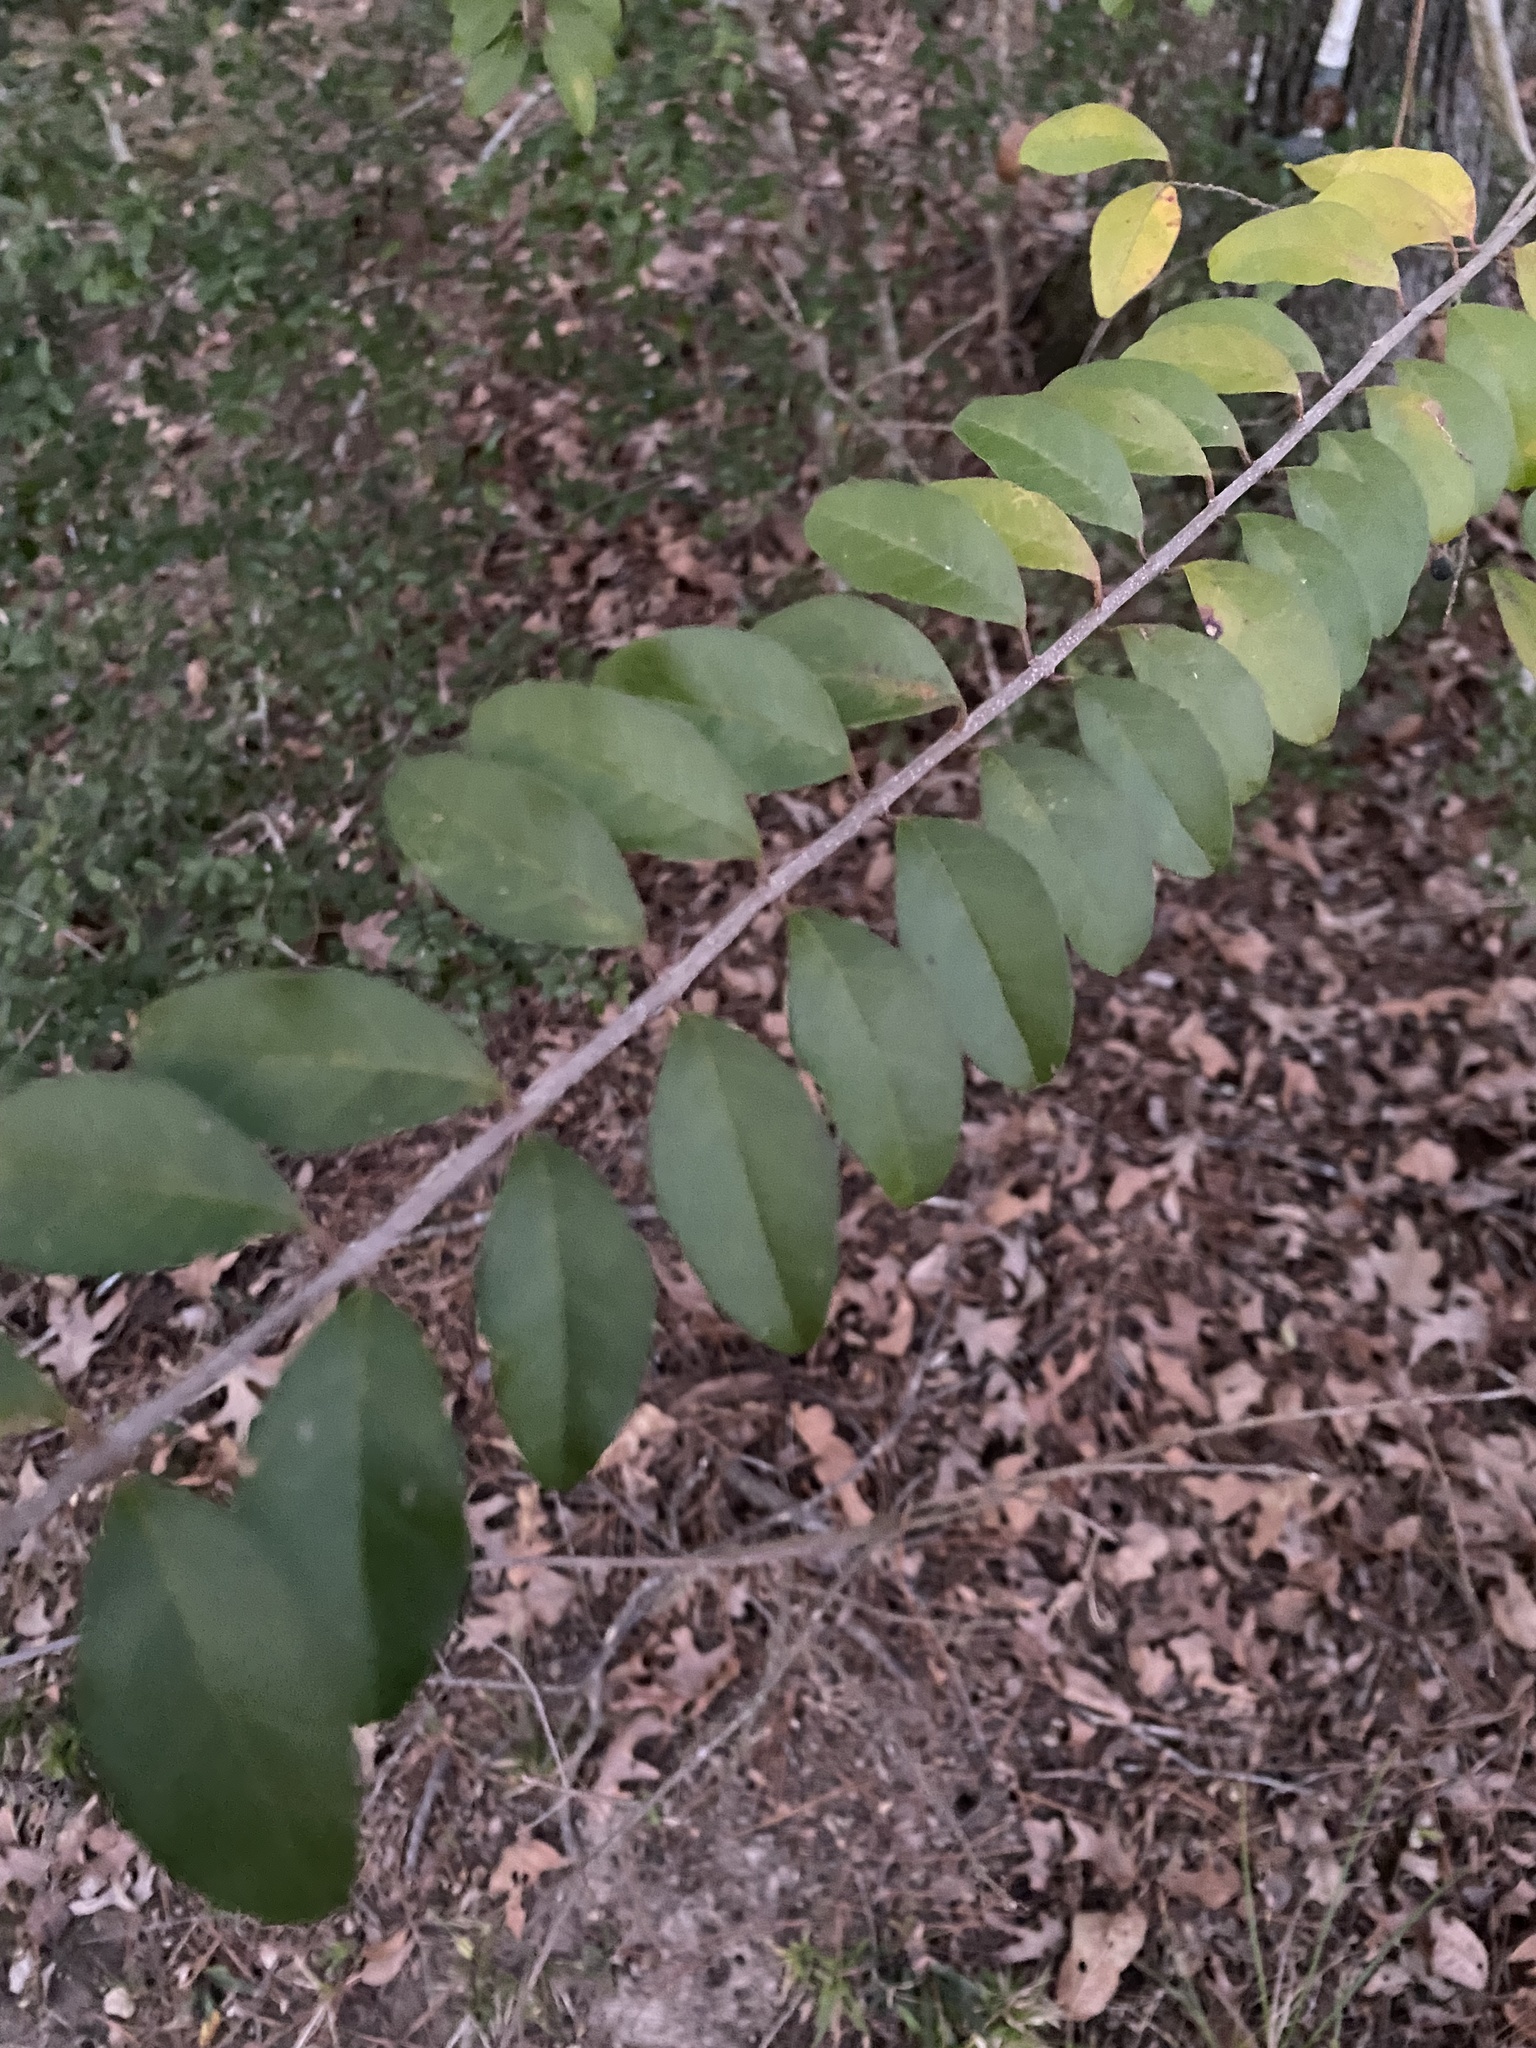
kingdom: Plantae
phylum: Tracheophyta
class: Magnoliopsida
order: Lamiales
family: Oleaceae
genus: Ligustrum
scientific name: Ligustrum sinense
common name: Chinese privet
